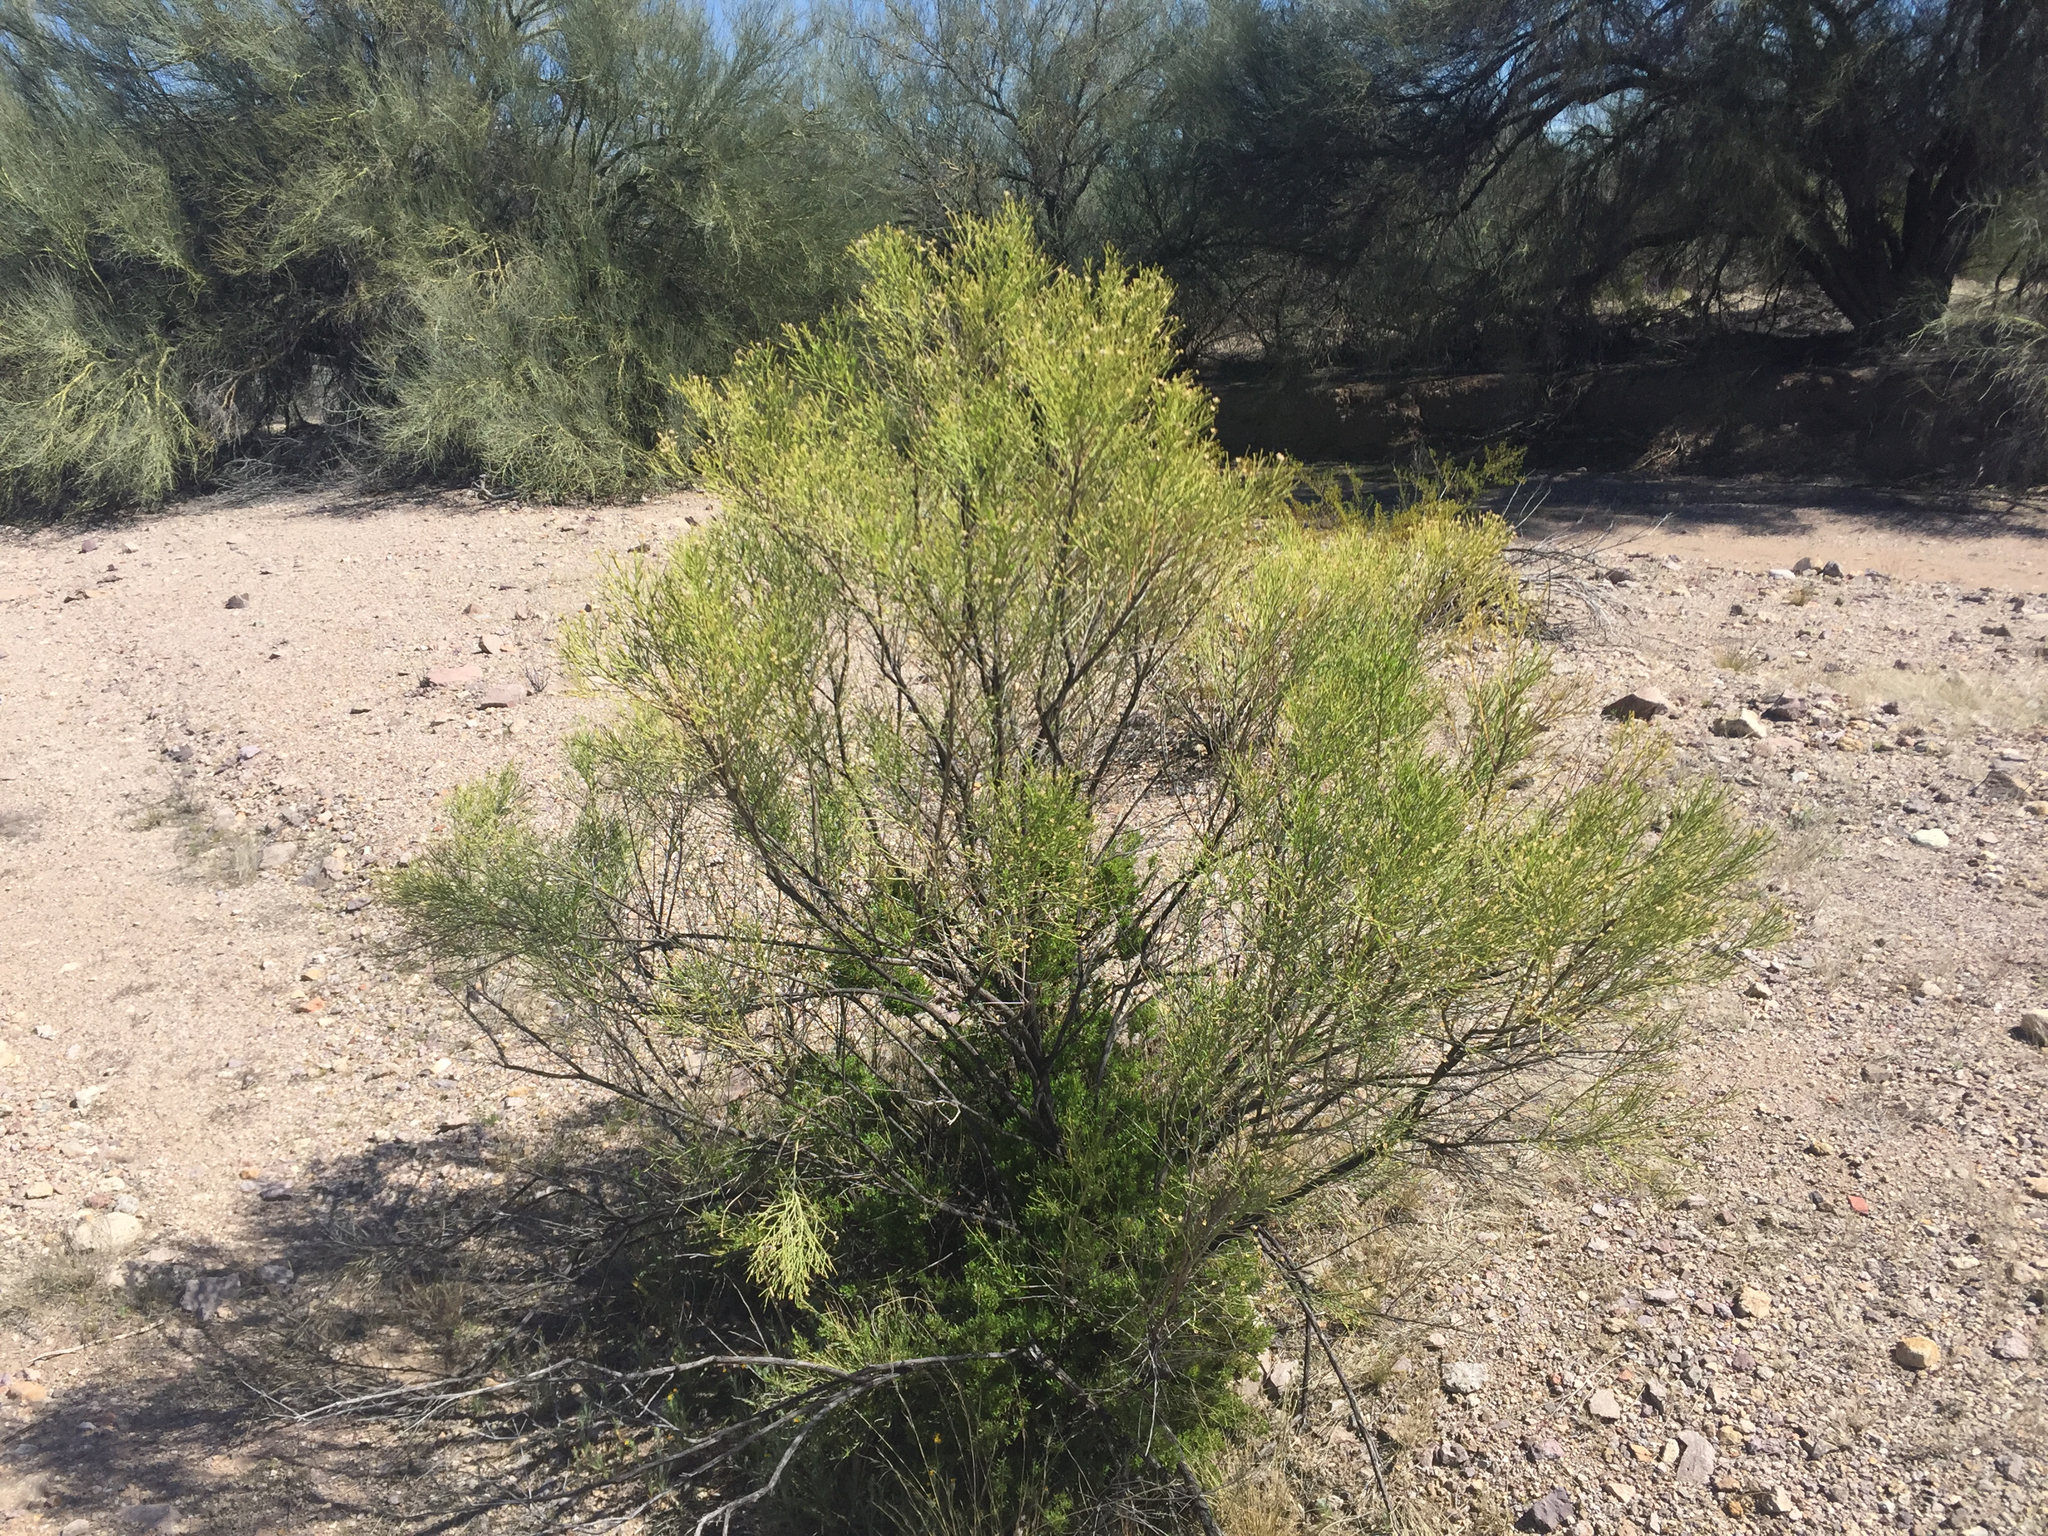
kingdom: Plantae
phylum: Tracheophyta
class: Magnoliopsida
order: Asterales
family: Asteraceae
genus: Baccharis
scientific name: Baccharis sarothroides
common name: Desert-broom
